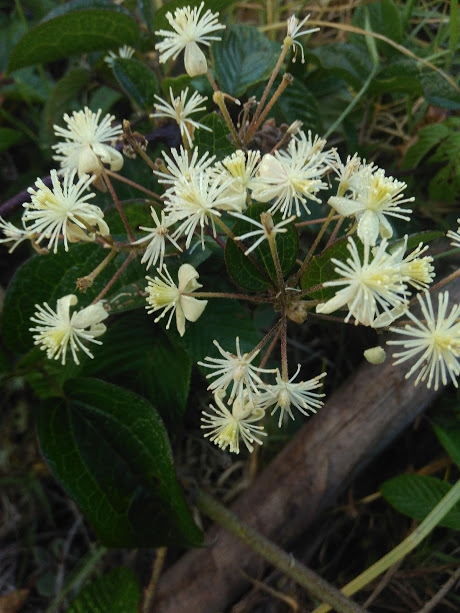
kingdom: Plantae
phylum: Tracheophyta
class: Magnoliopsida
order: Ranunculales
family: Ranunculaceae
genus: Clematis
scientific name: Clematis haenkeana
